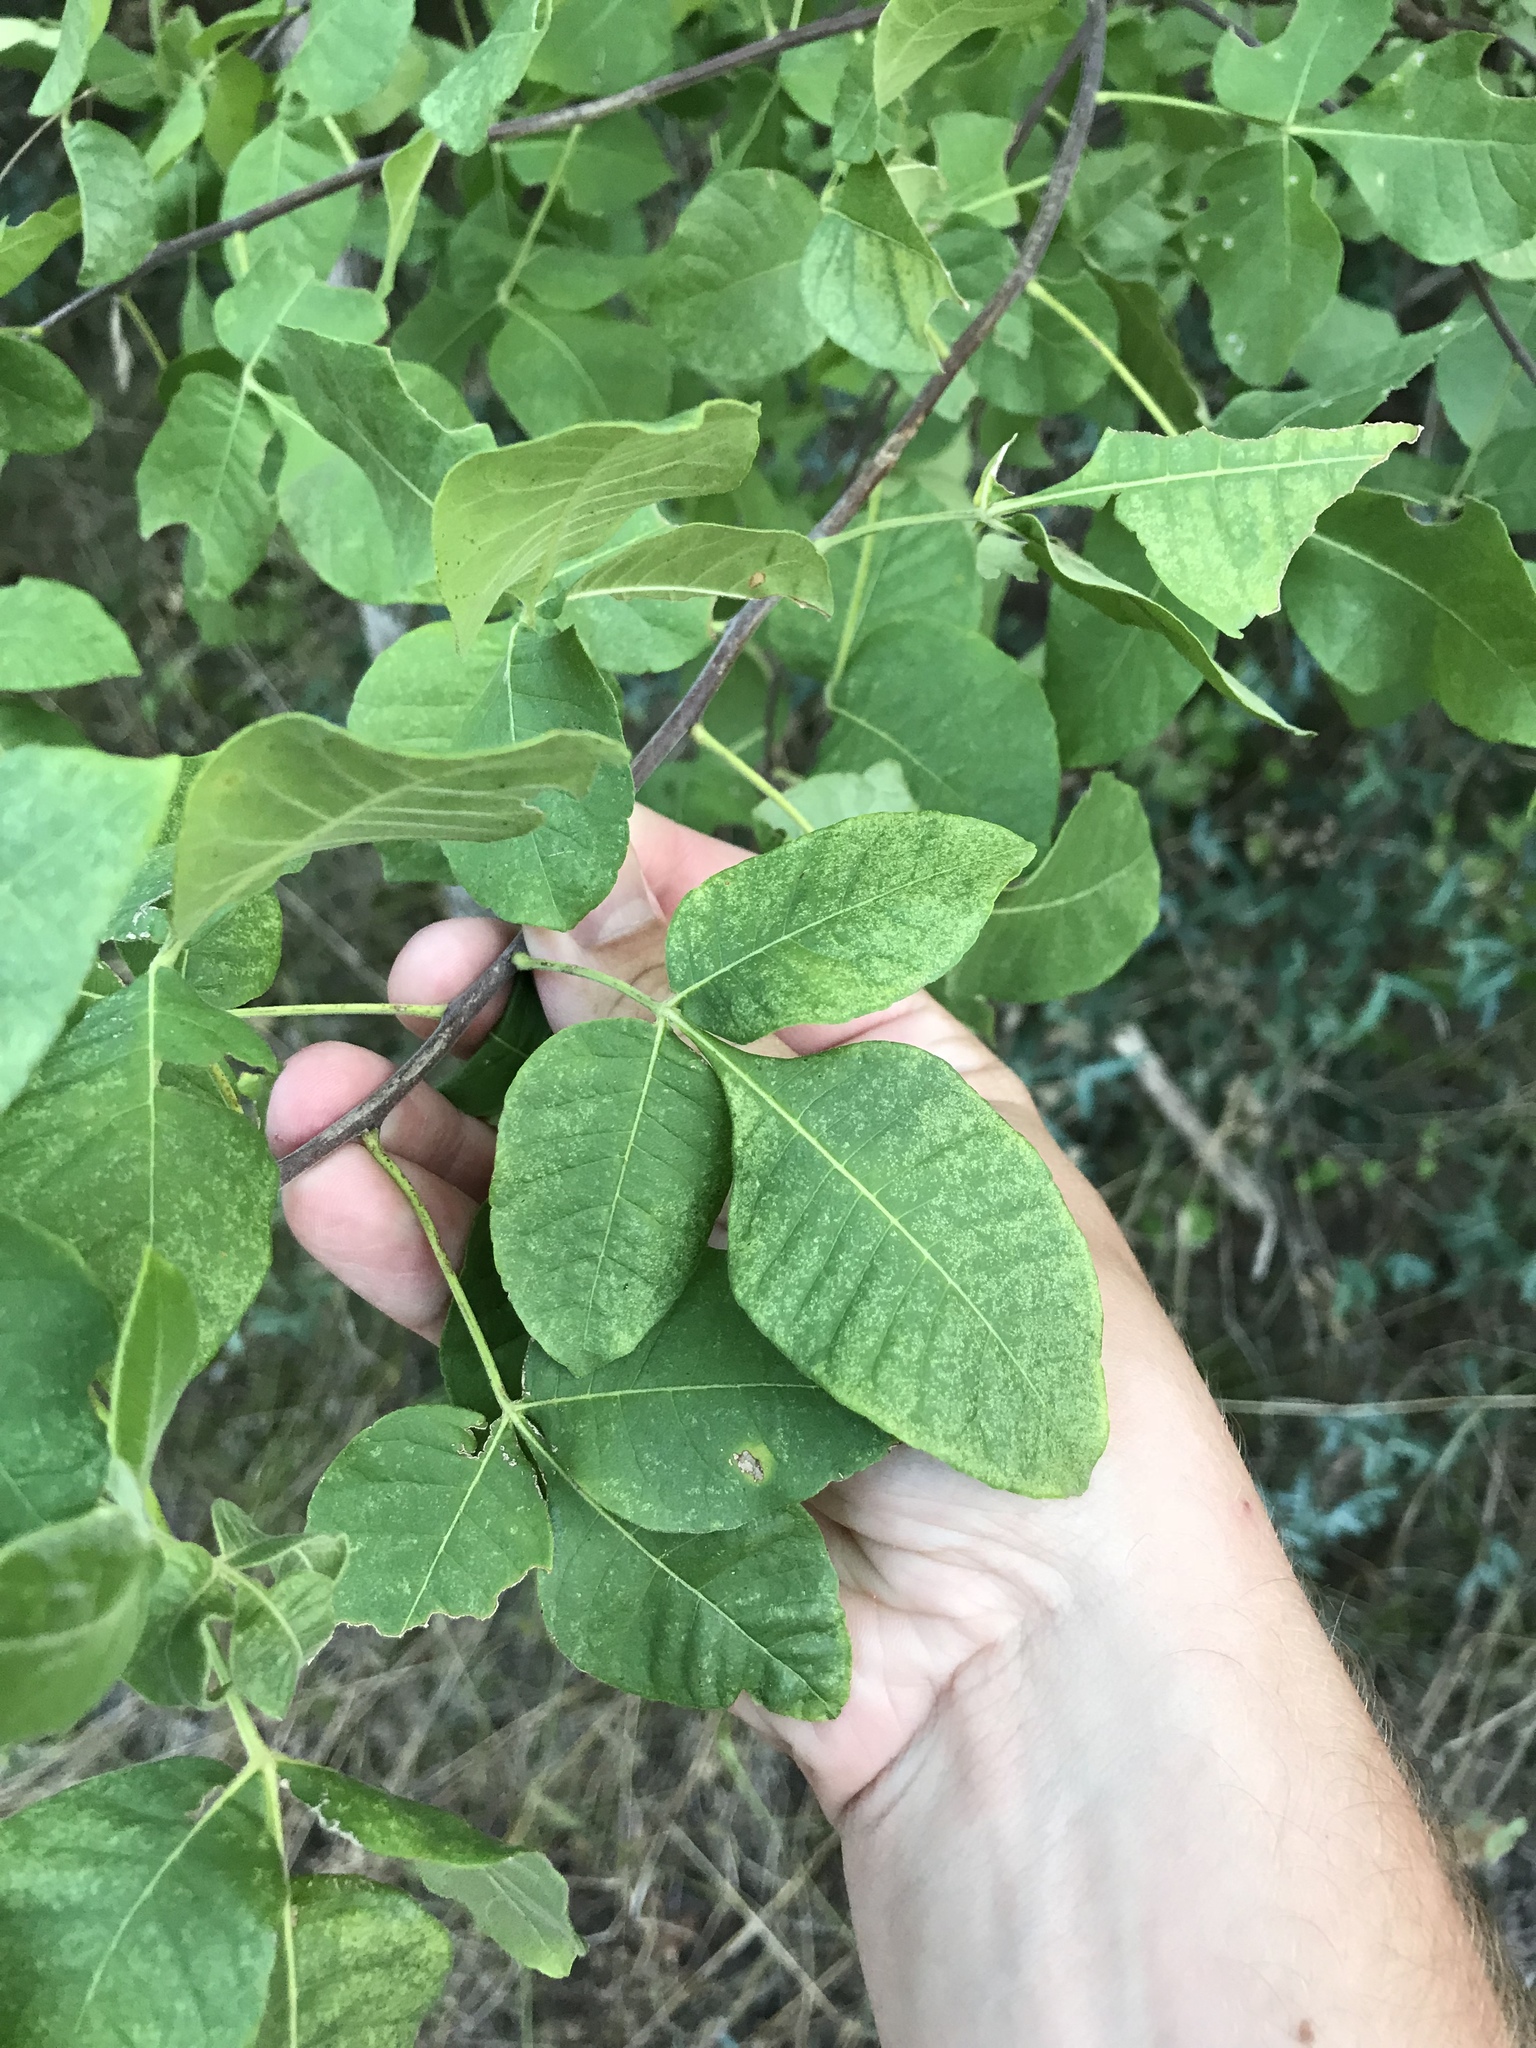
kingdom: Plantae
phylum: Tracheophyta
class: Magnoliopsida
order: Sapindales
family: Rutaceae
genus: Ptelea
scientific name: Ptelea trifoliata
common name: Common hop-tree
